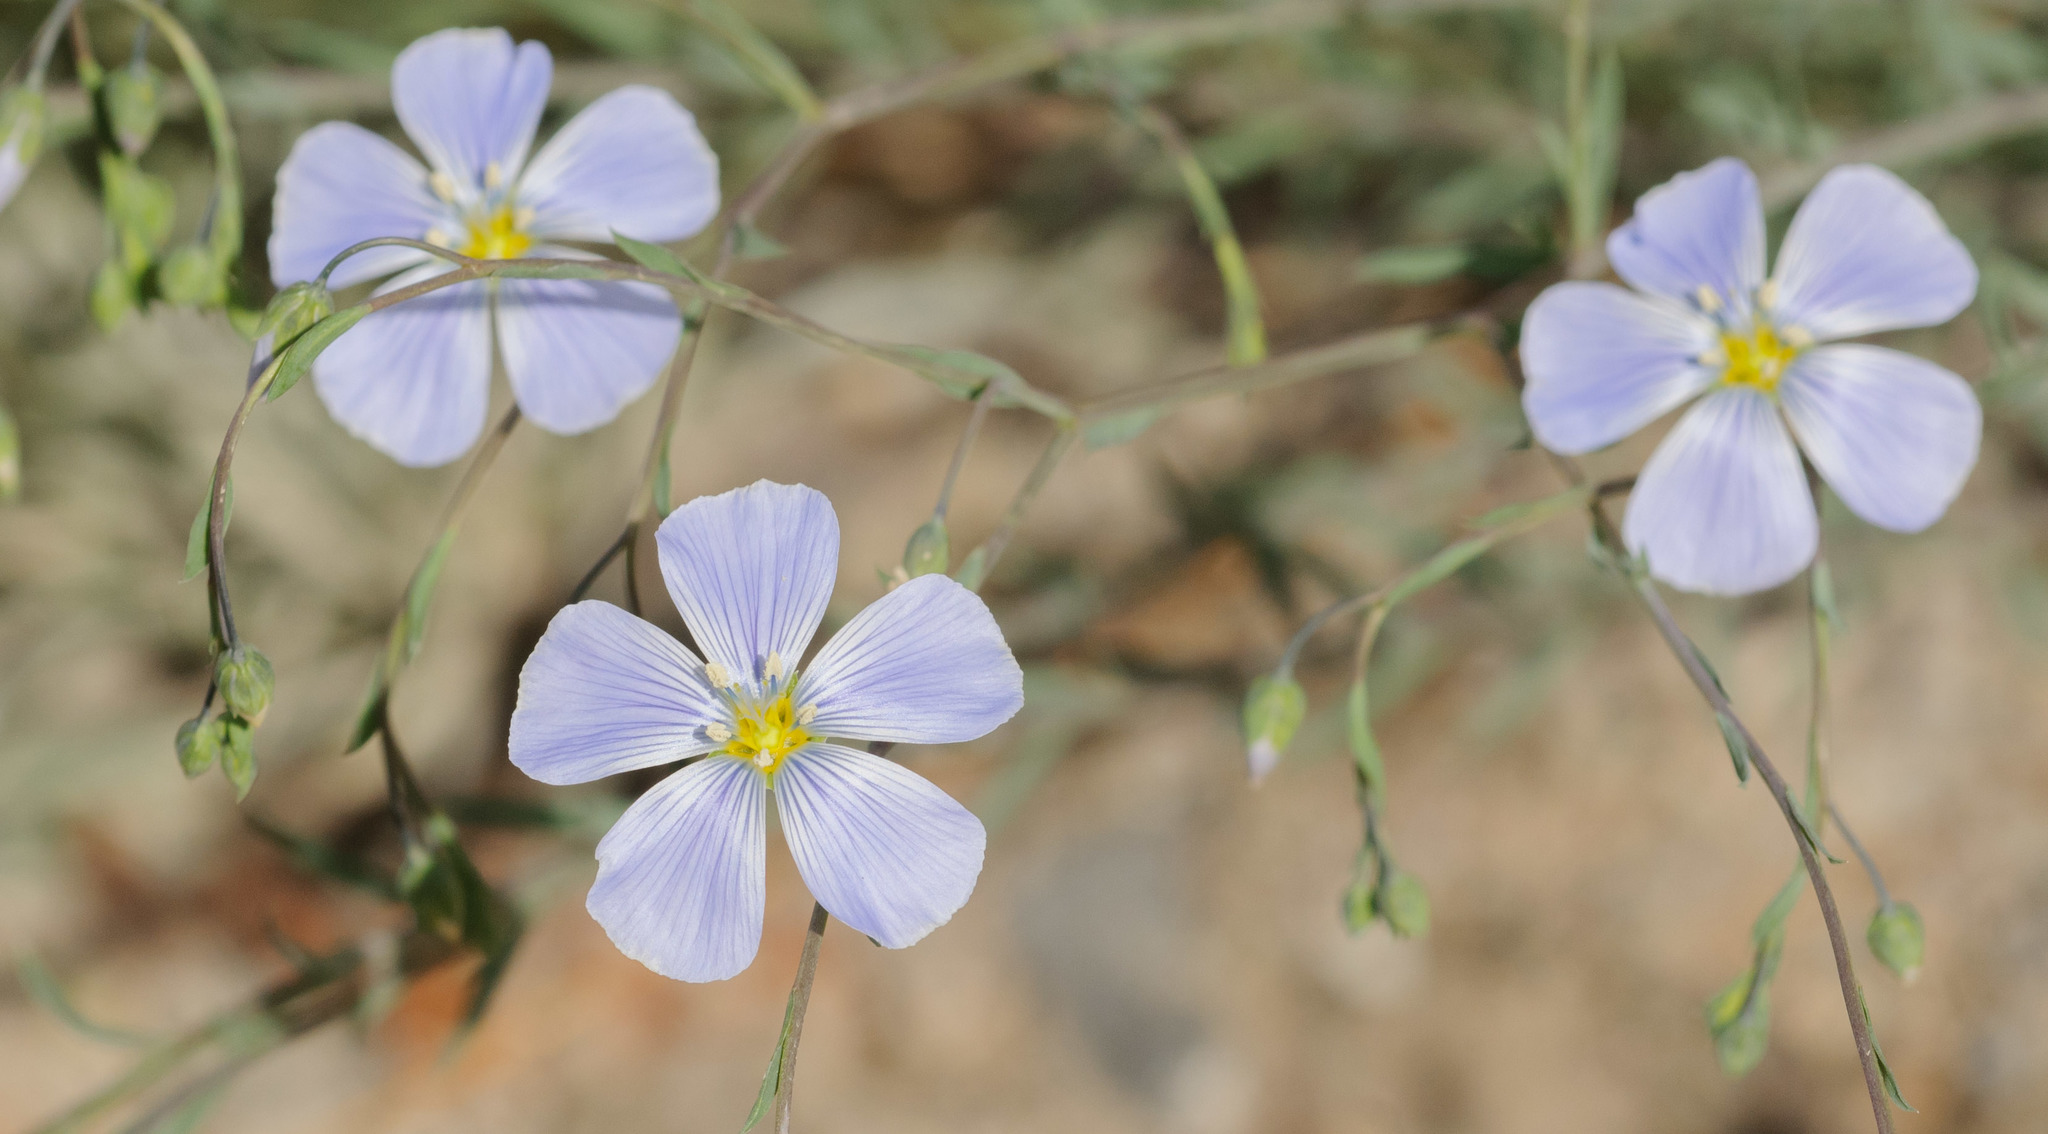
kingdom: Plantae
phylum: Tracheophyta
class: Magnoliopsida
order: Malpighiales
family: Linaceae
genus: Linum
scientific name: Linum lewisii
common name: Prairie flax
